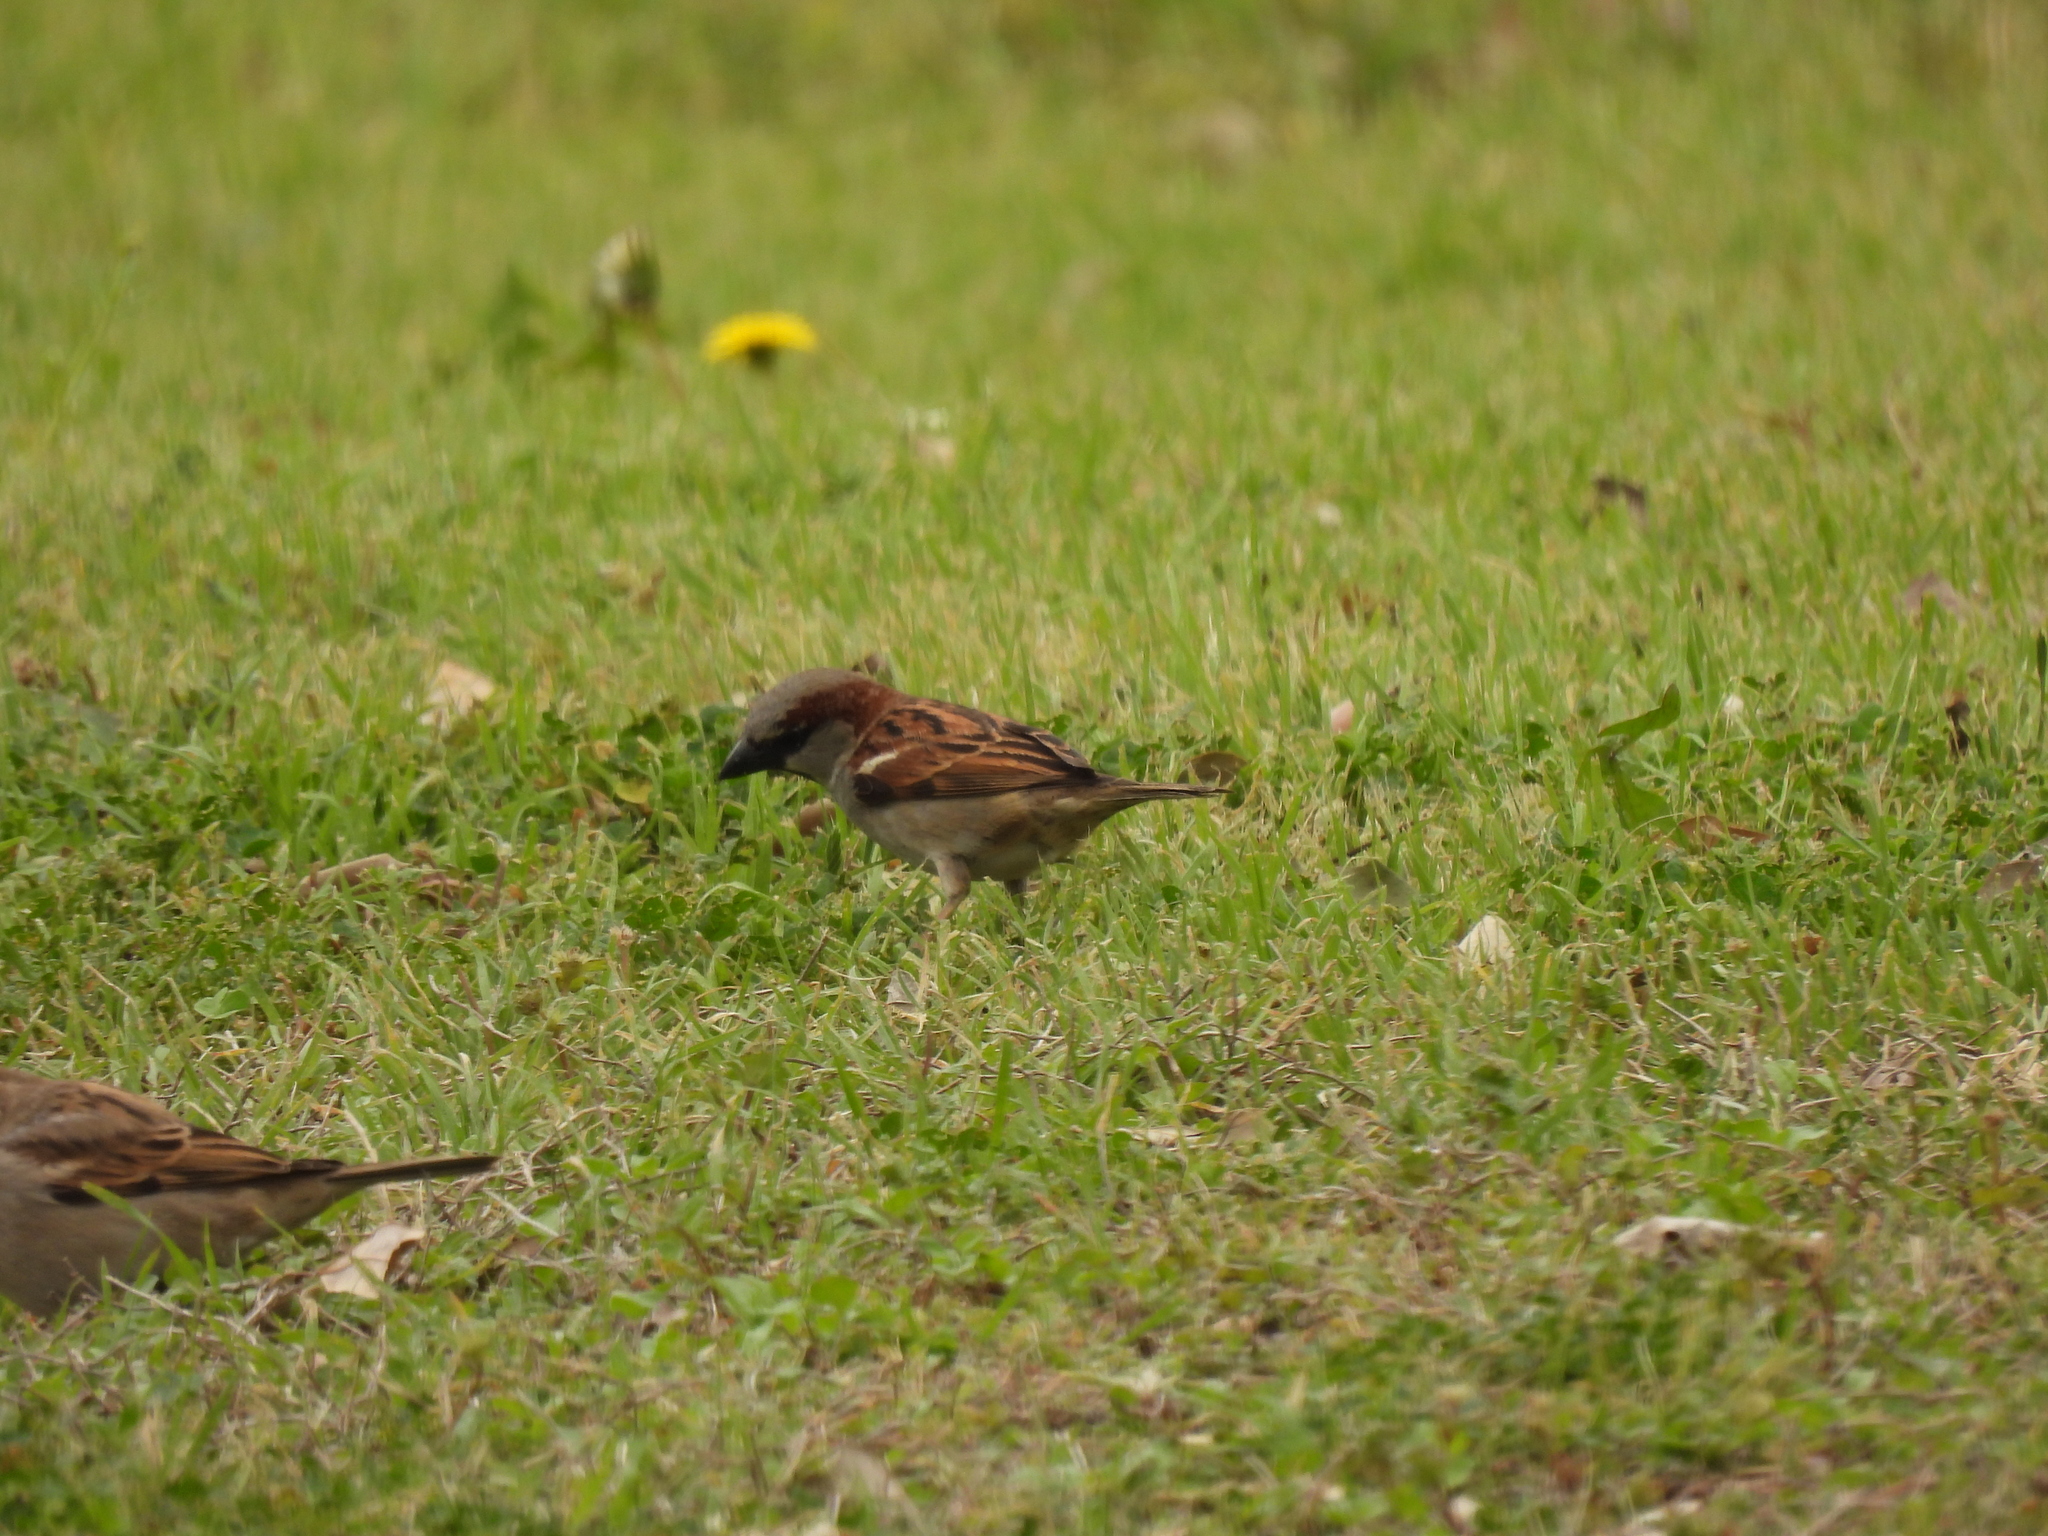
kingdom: Animalia
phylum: Chordata
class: Aves
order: Passeriformes
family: Passeridae
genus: Passer
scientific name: Passer domesticus
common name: House sparrow
